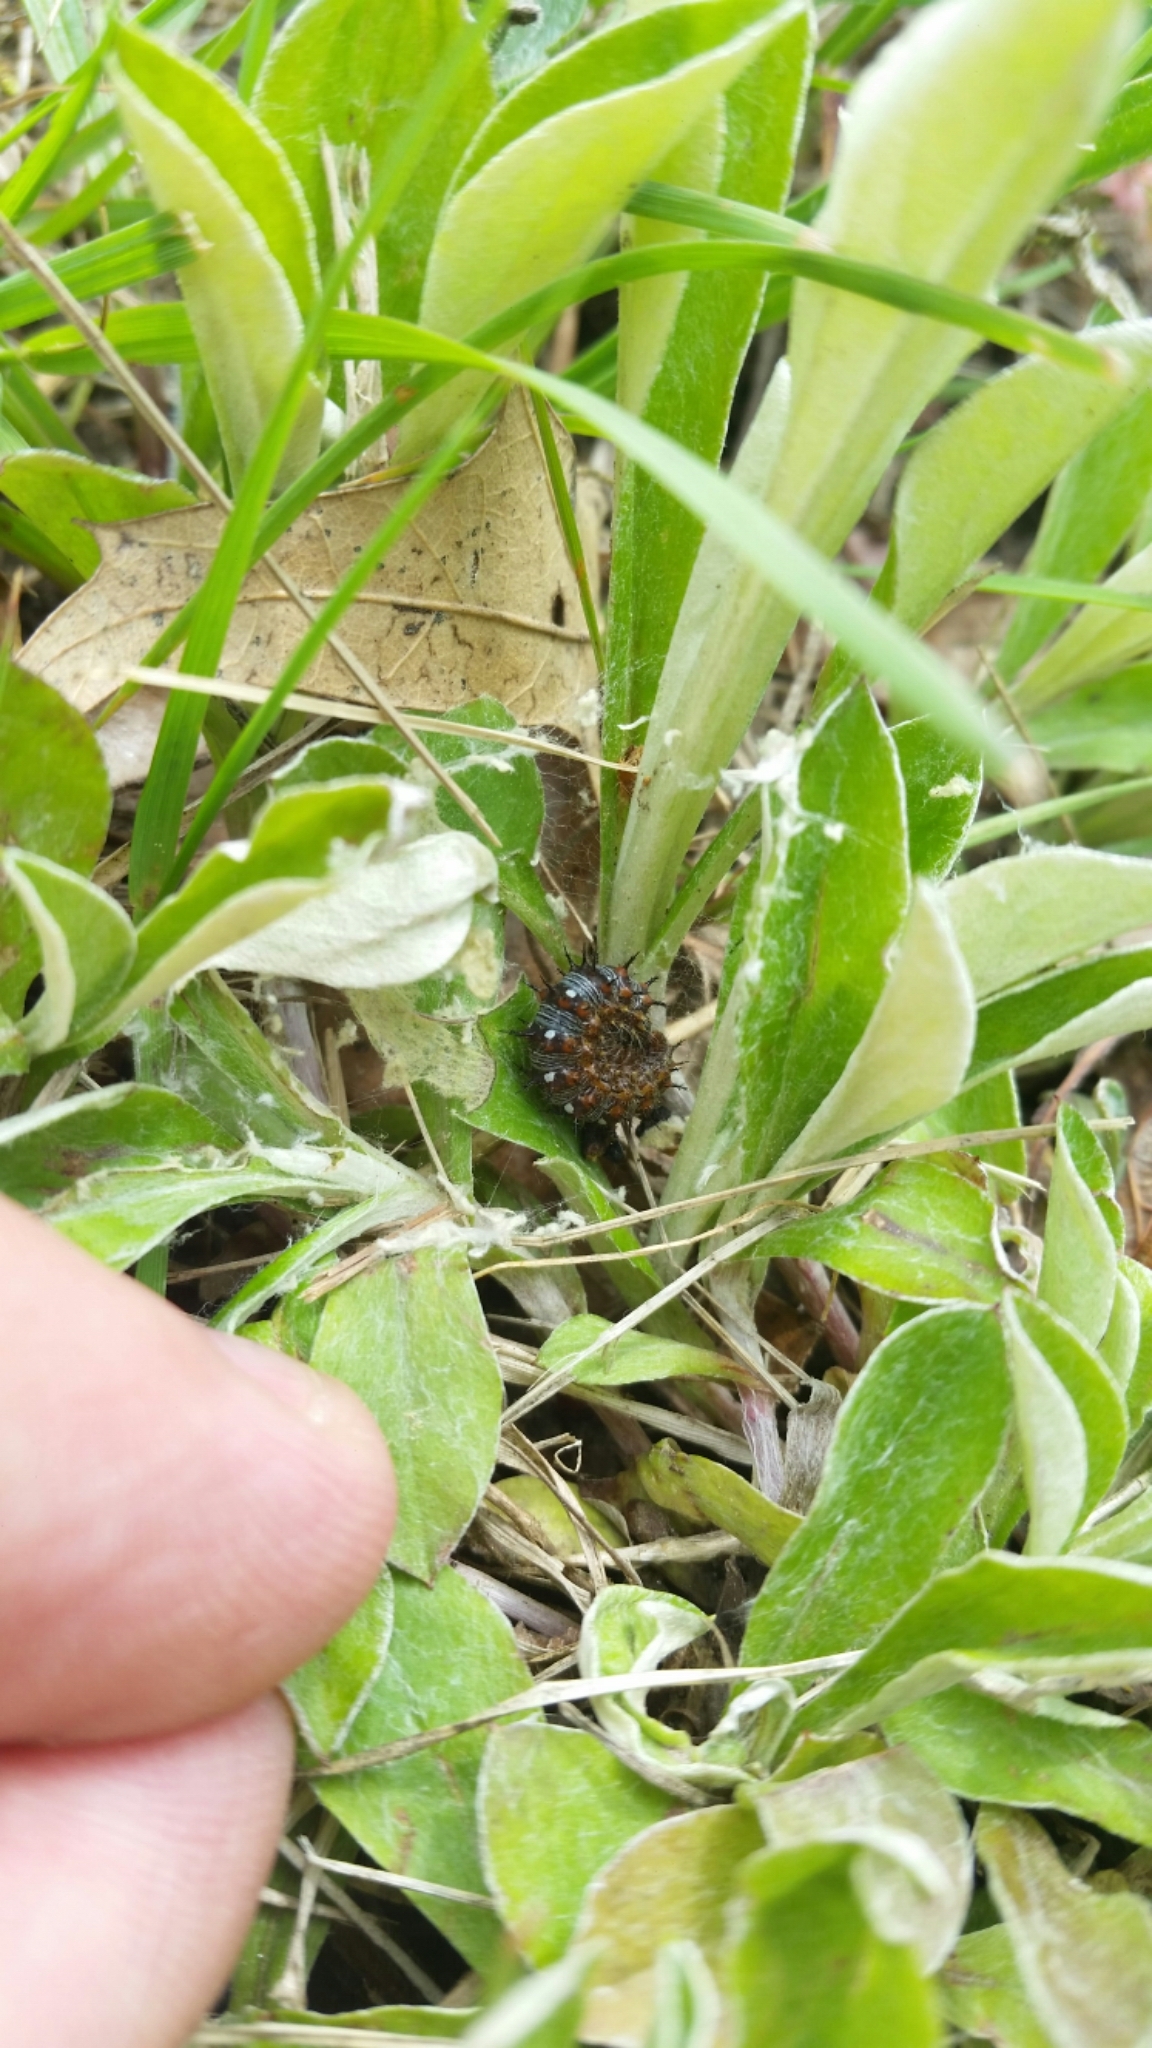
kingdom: Animalia
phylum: Arthropoda
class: Insecta
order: Lepidoptera
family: Nymphalidae
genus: Vanessa
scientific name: Vanessa virginiensis
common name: American lady
